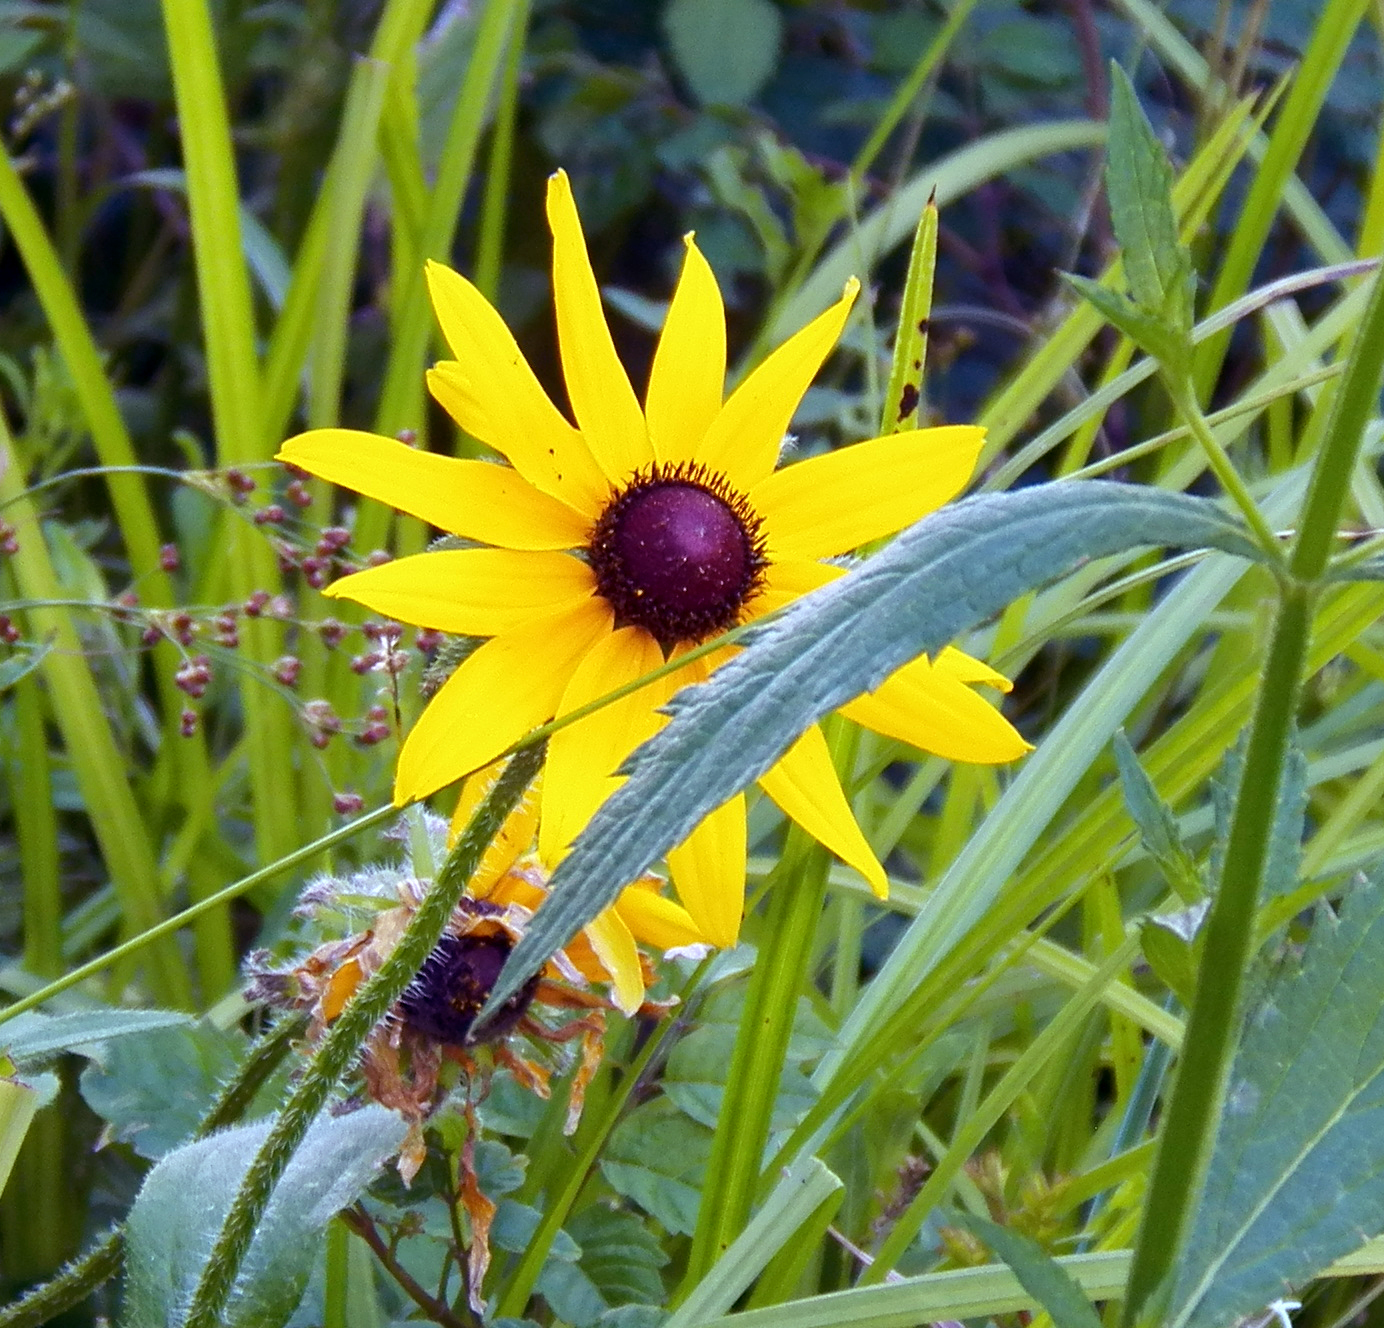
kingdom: Plantae
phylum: Tracheophyta
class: Magnoliopsida
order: Asterales
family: Asteraceae
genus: Rudbeckia
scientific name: Rudbeckia hirta
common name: Black-eyed-susan
